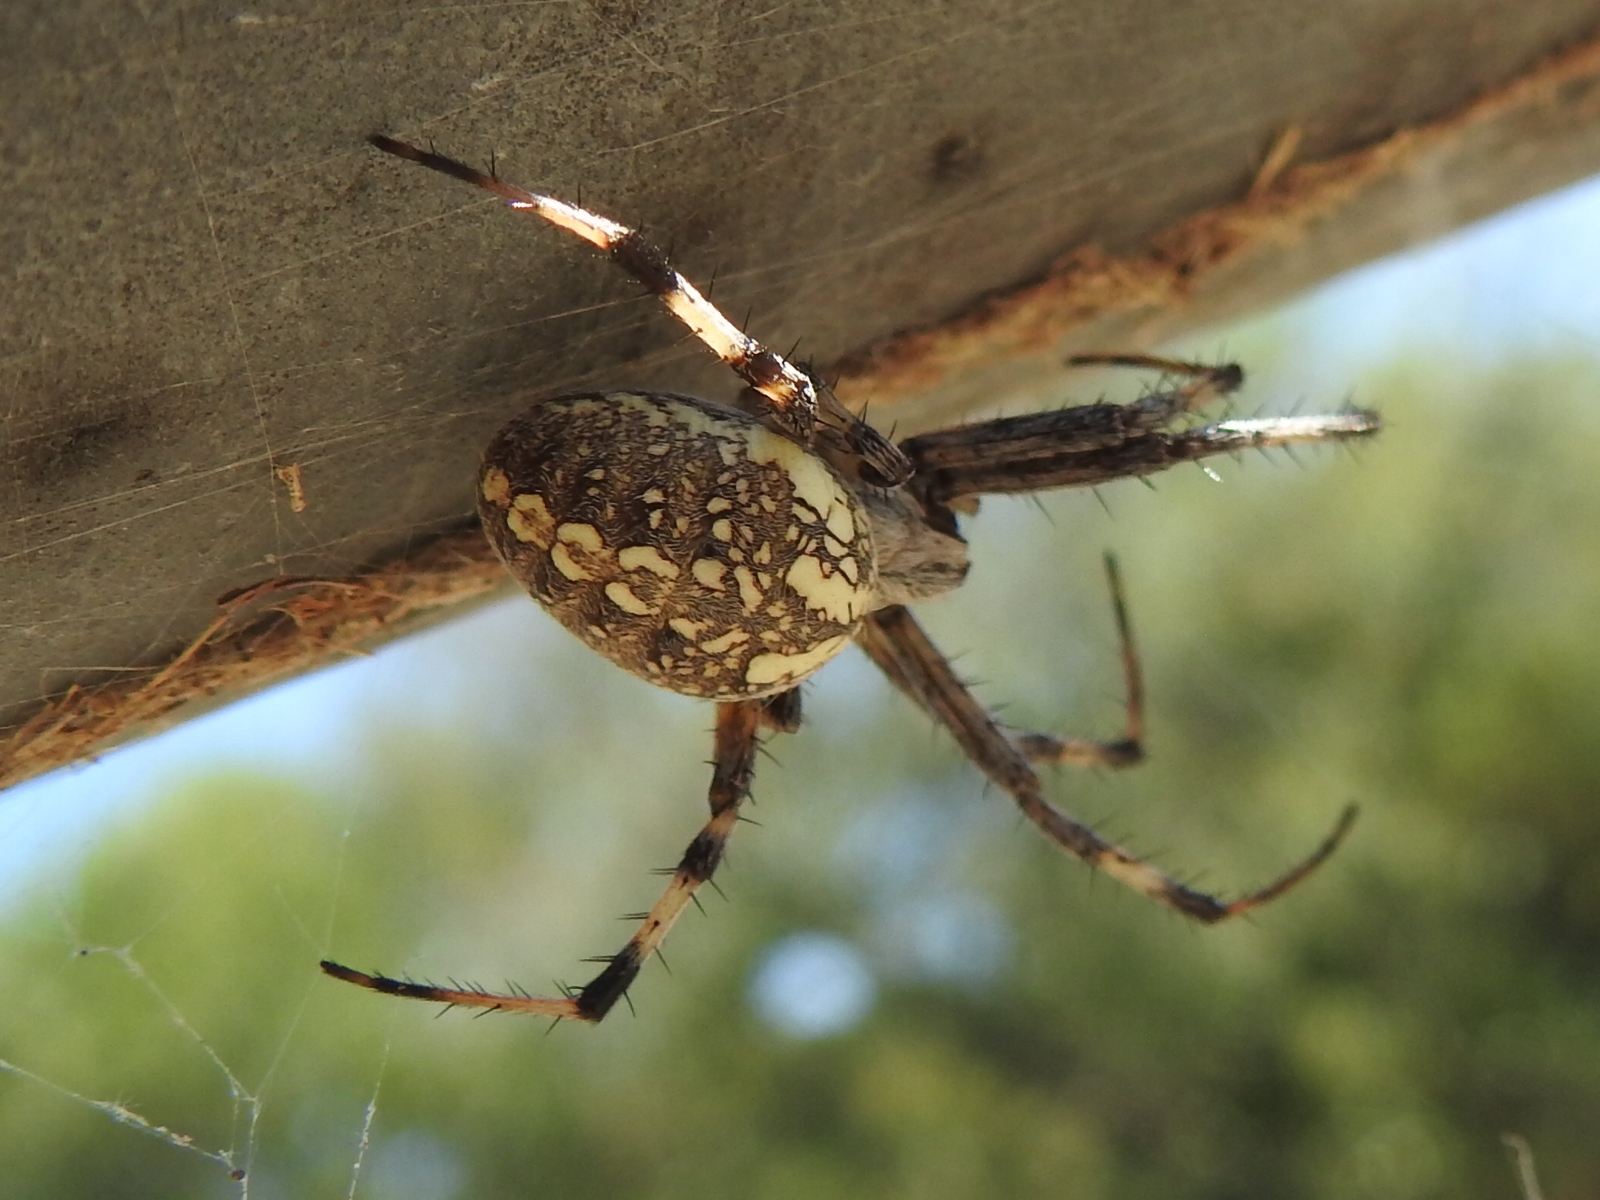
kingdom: Animalia
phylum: Arthropoda
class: Arachnida
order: Araneae
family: Araneidae
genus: Neoscona
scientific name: Neoscona oaxacensis
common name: Orb weavers
